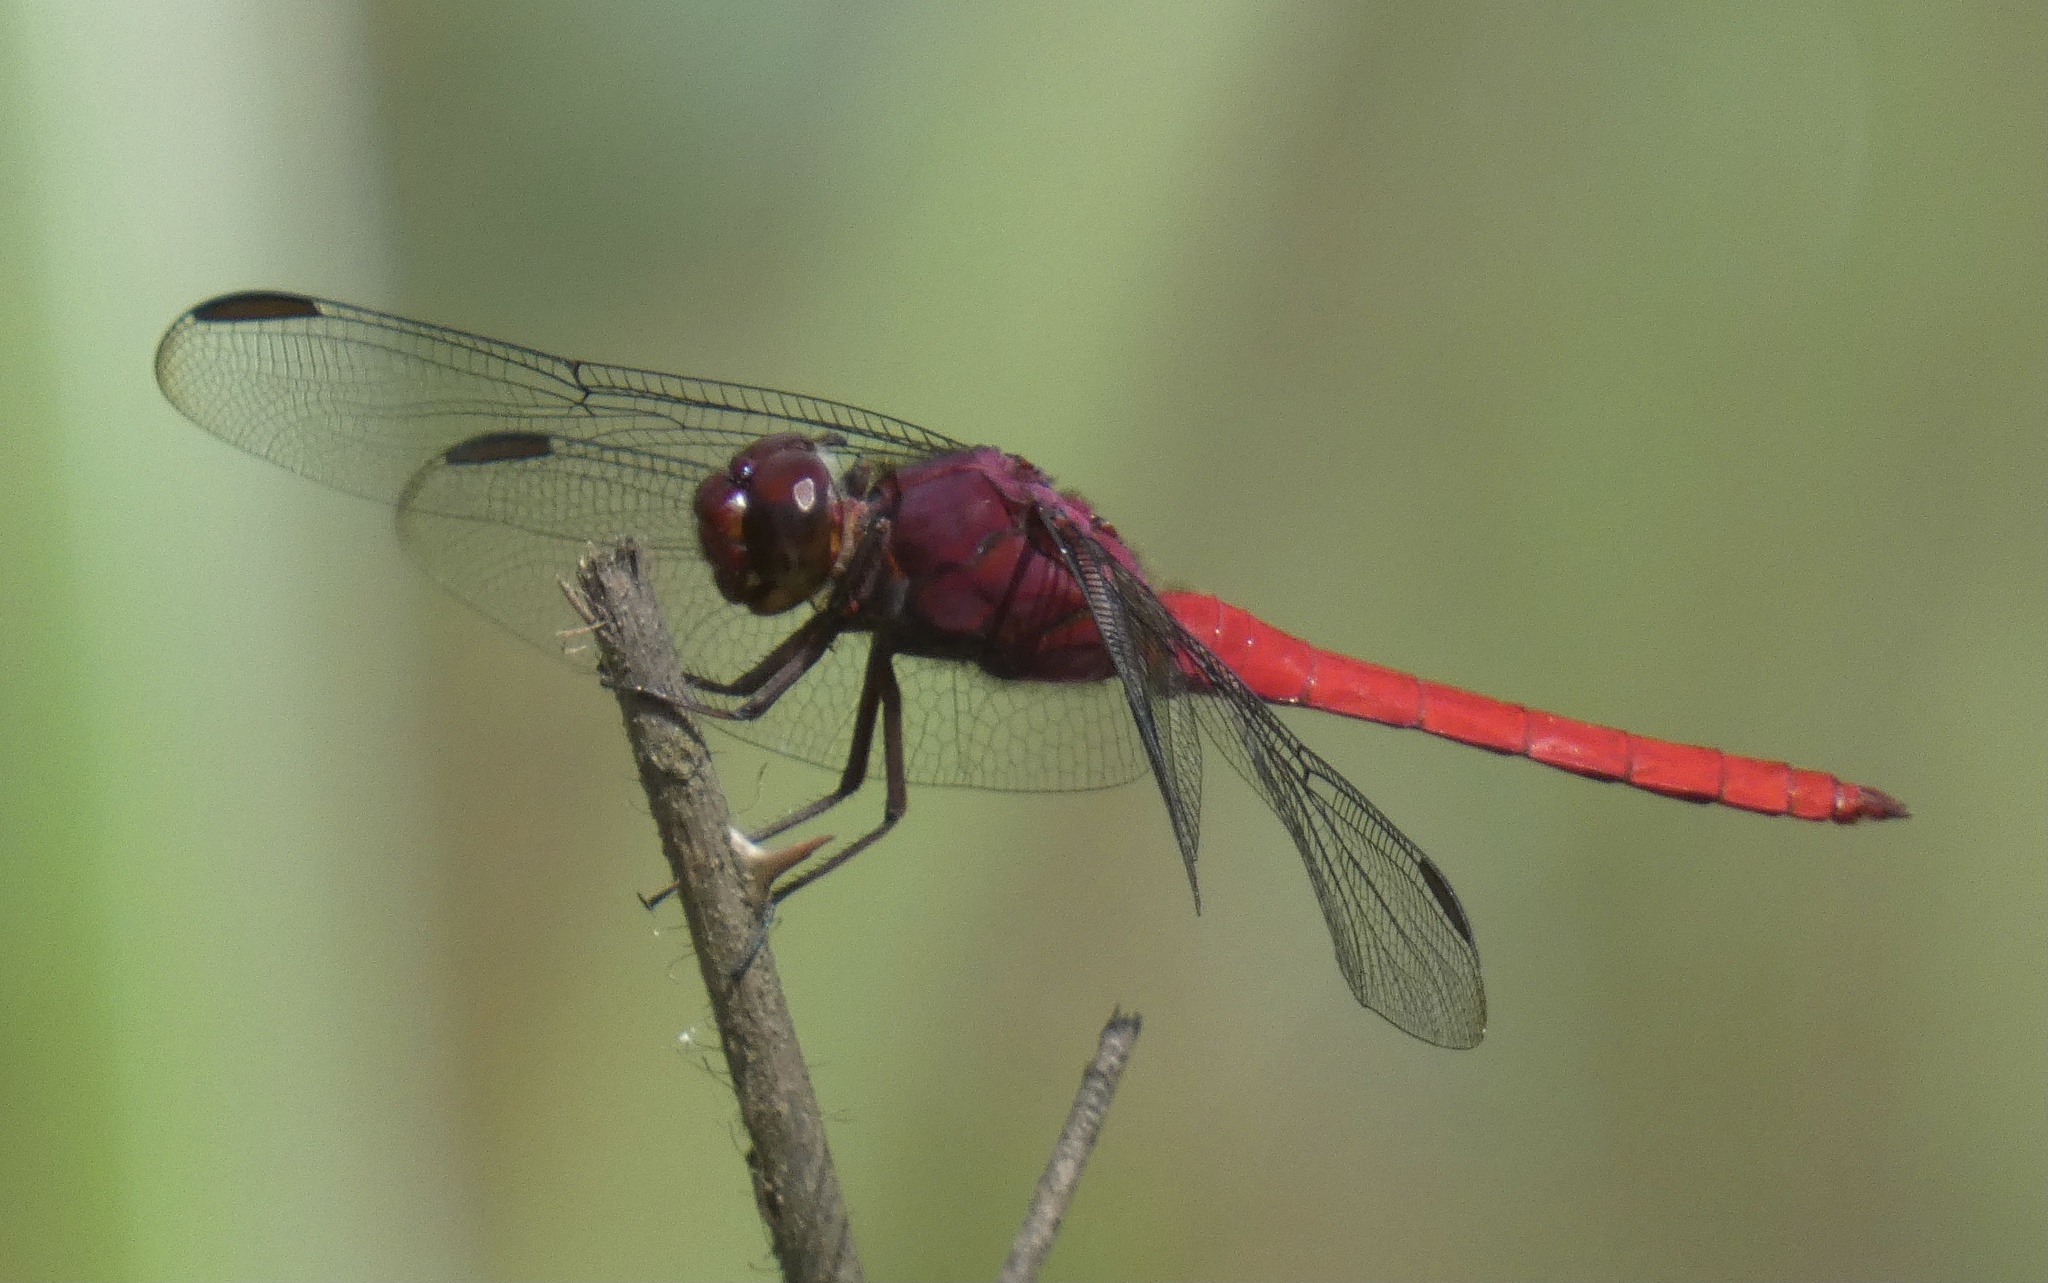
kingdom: Animalia
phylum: Arthropoda
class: Insecta
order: Odonata
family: Libellulidae
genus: Orthemis
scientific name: Orthemis schmidti
